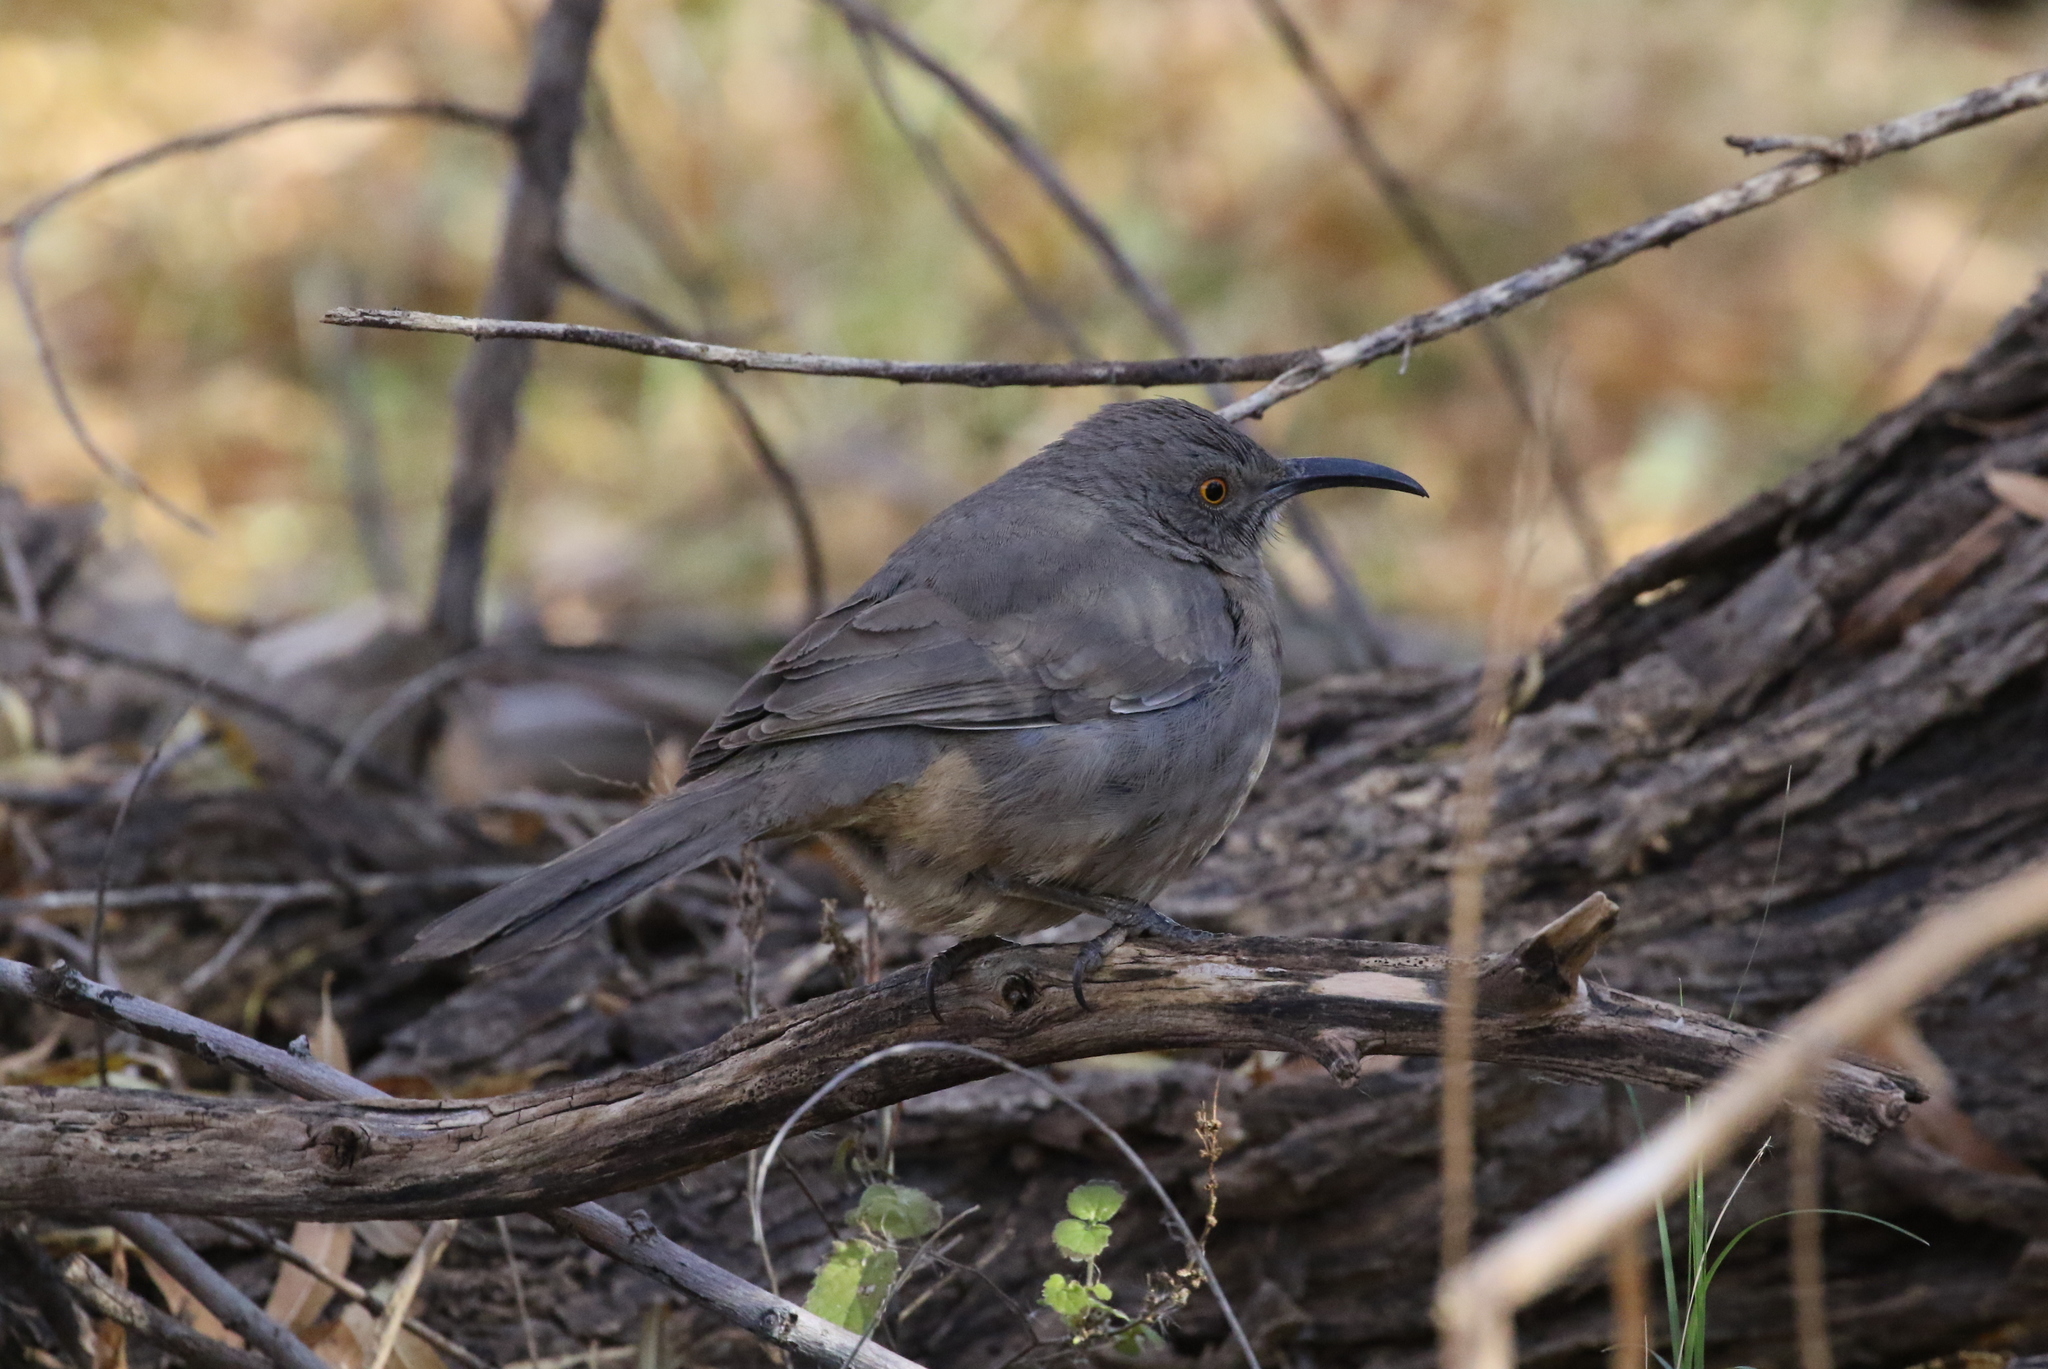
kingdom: Animalia
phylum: Chordata
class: Aves
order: Passeriformes
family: Mimidae
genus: Toxostoma
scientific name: Toxostoma curvirostre
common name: Curve-billed thrasher
